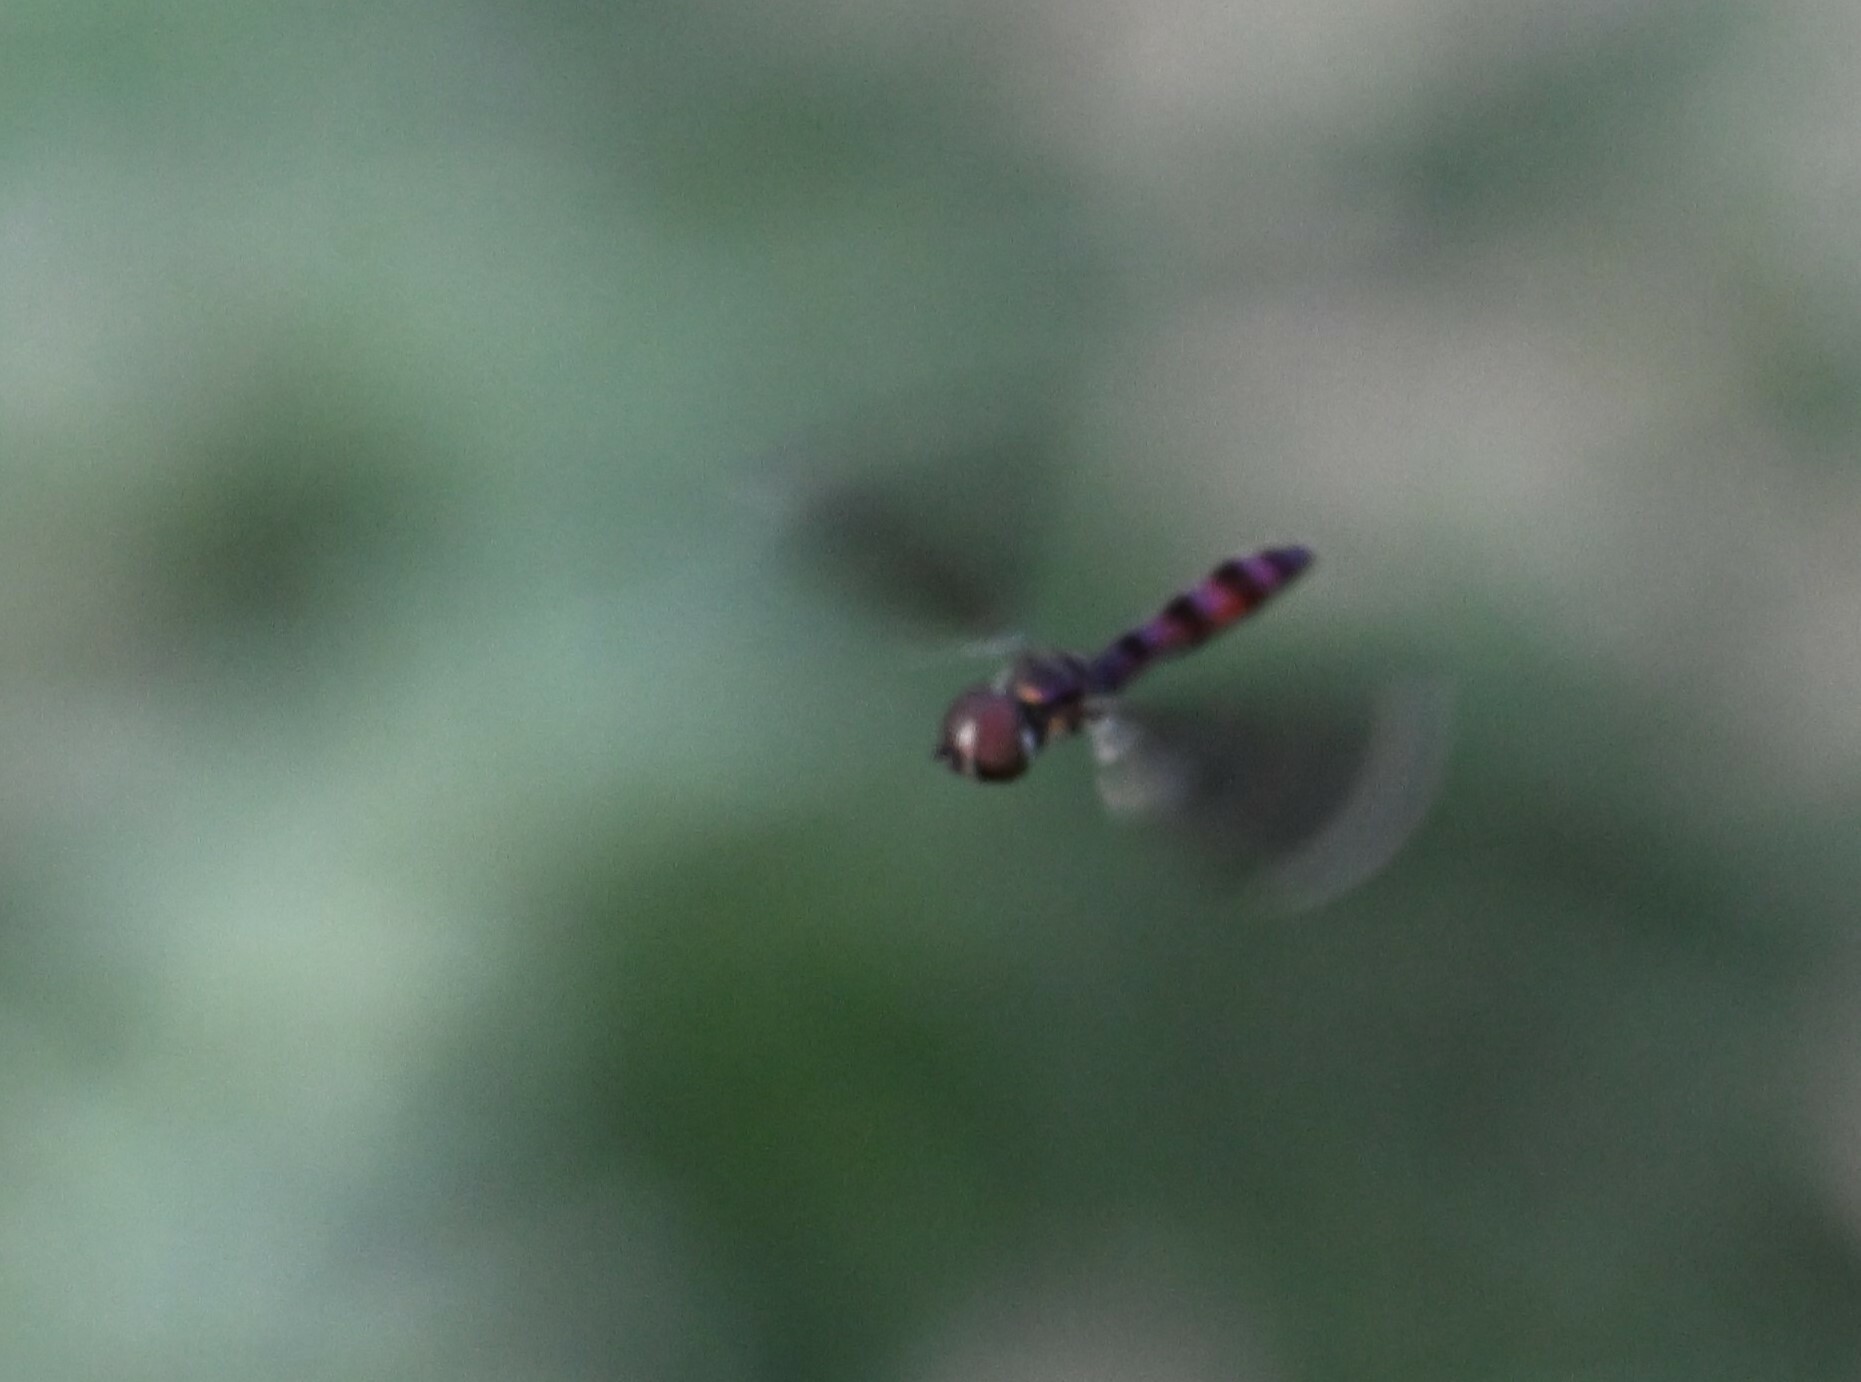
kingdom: Animalia
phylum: Arthropoda
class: Insecta
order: Diptera
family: Syrphidae
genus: Ocyptamus
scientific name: Ocyptamus fuscipennis
